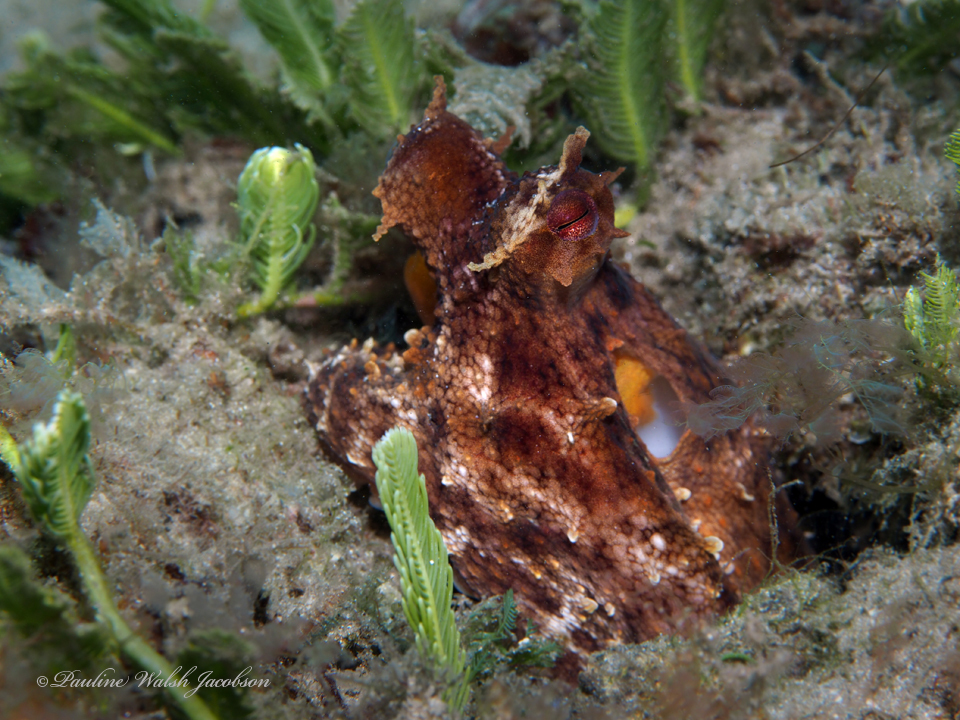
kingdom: Animalia
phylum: Mollusca
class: Cephalopoda
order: Octopoda
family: Octopodidae
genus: Octopus
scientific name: Octopus americanus
